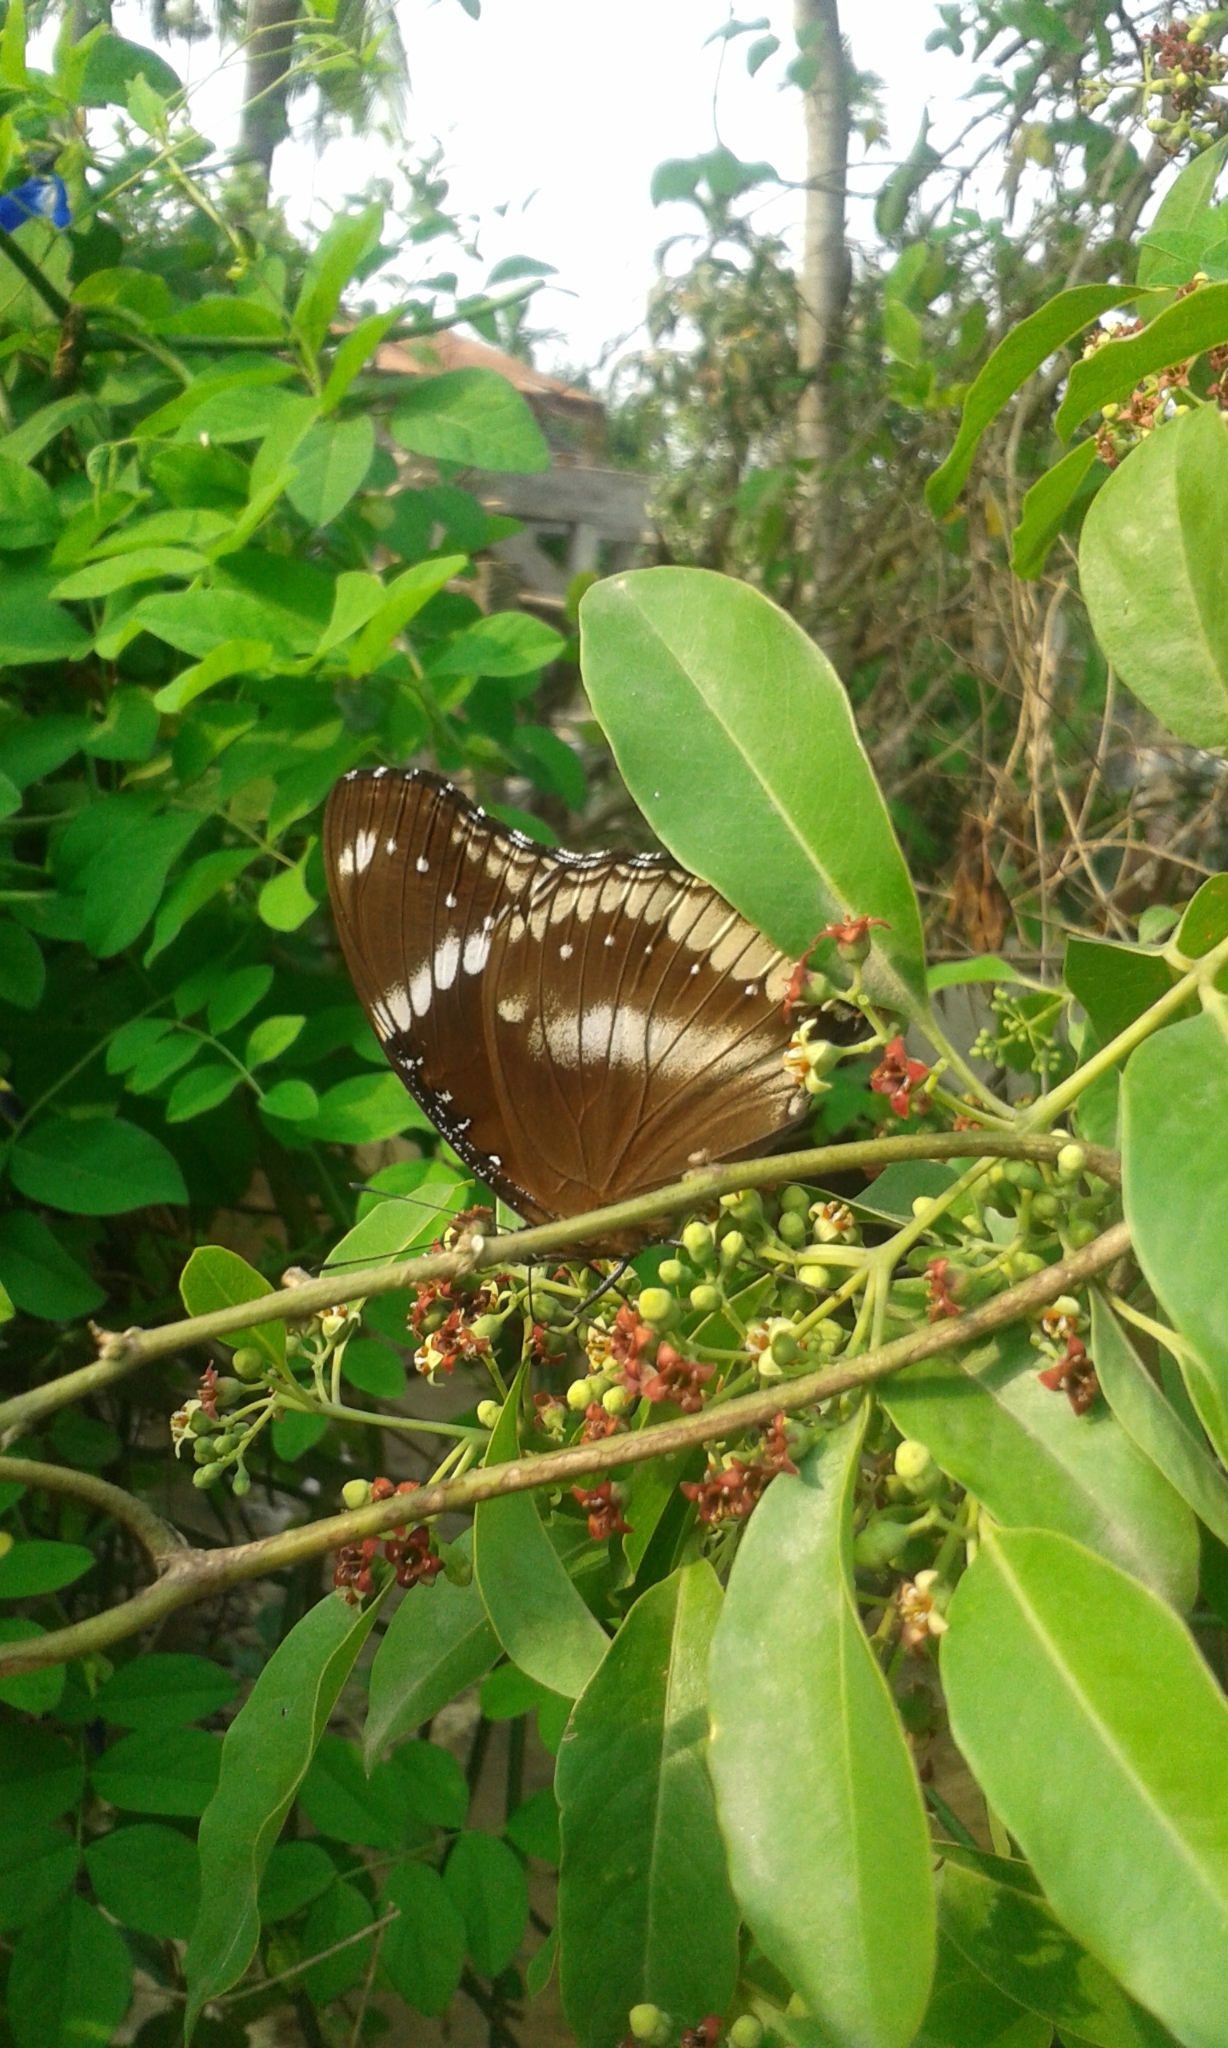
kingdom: Animalia
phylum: Arthropoda
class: Insecta
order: Lepidoptera
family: Nymphalidae
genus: Hypolimnas
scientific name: Hypolimnas bolina
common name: Great eggfly
